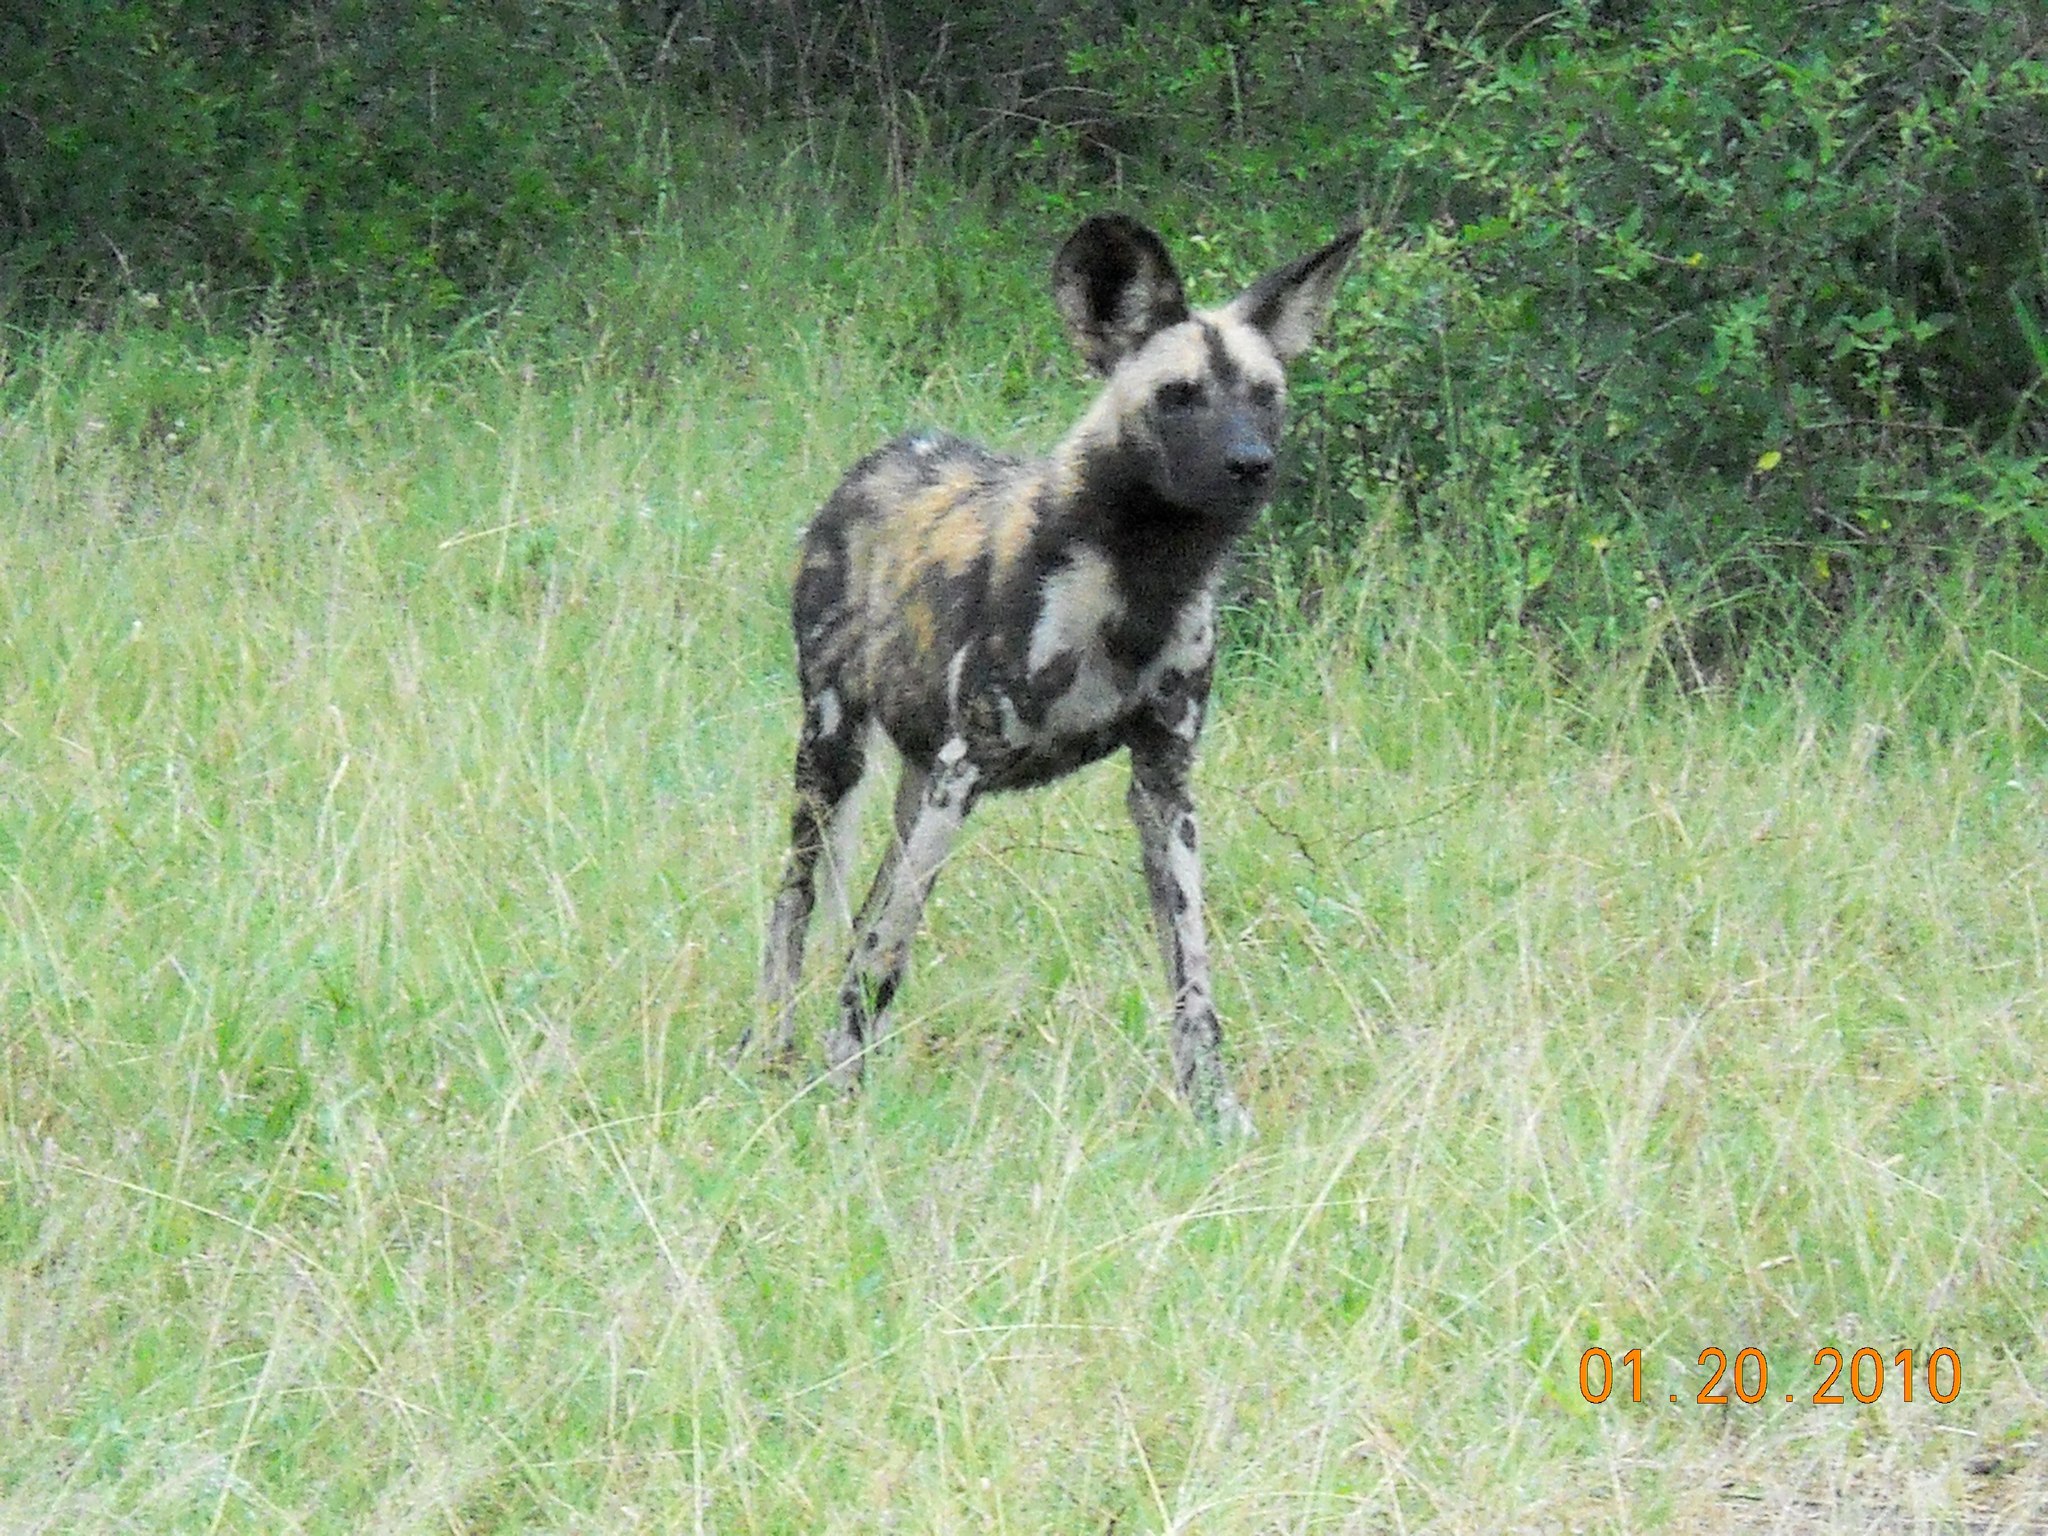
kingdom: Animalia
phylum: Chordata
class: Mammalia
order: Carnivora
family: Canidae
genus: Lycaon
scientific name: Lycaon pictus
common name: African wild dog
